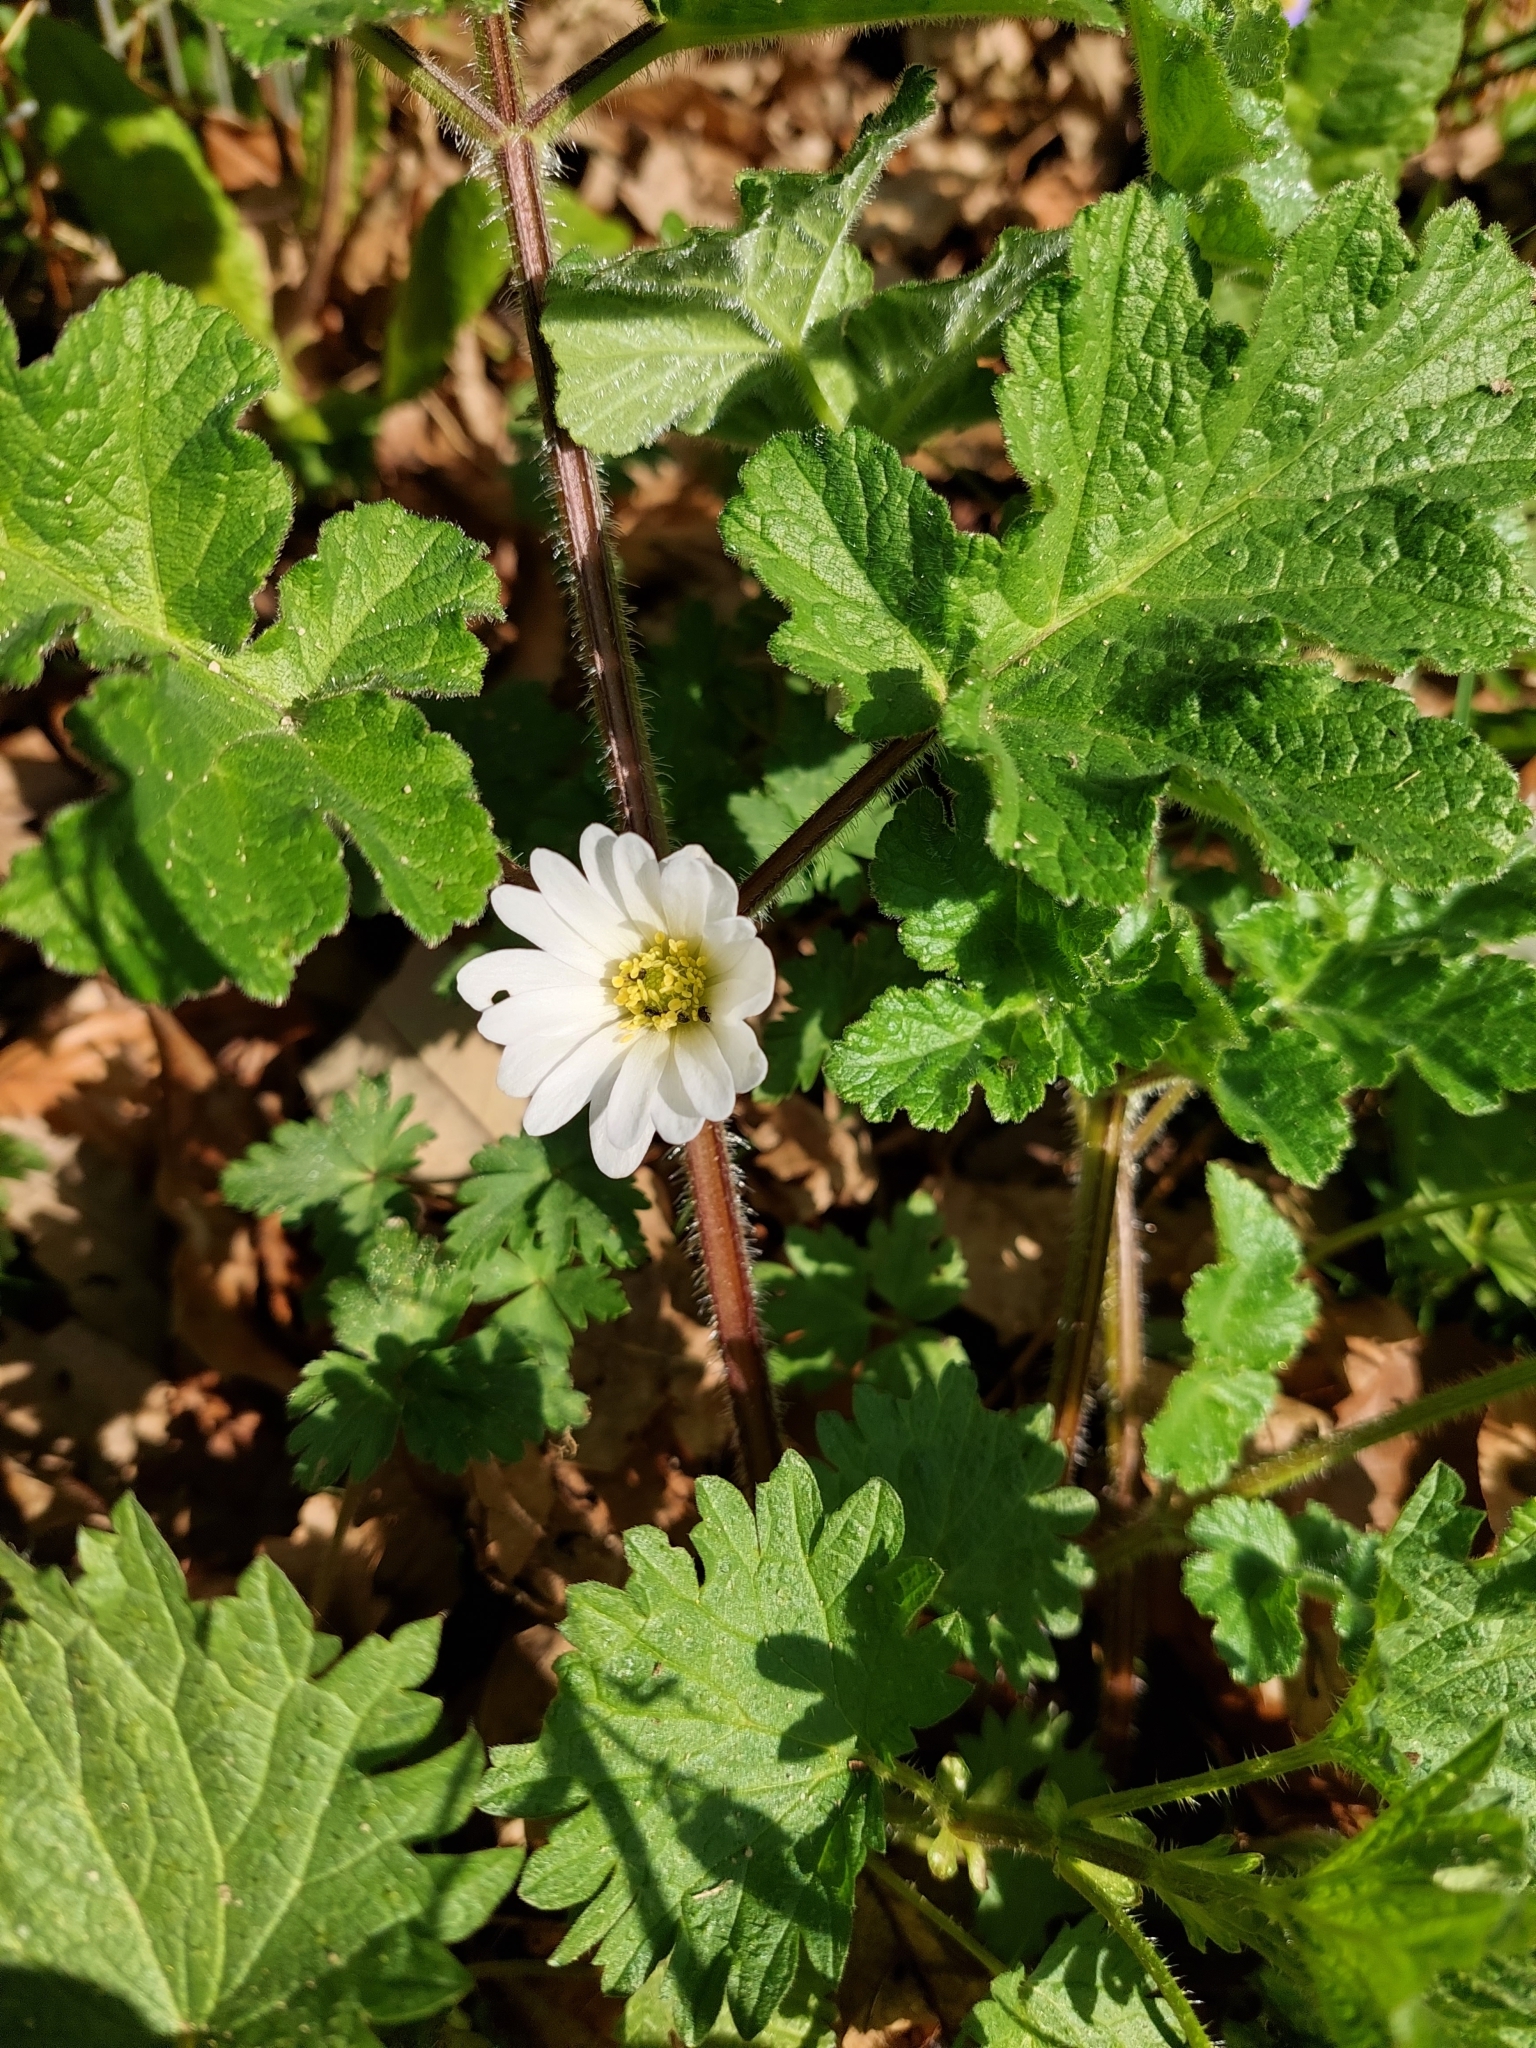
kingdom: Plantae
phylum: Tracheophyta
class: Magnoliopsida
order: Ranunculales
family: Ranunculaceae
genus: Anemone
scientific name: Anemone blanda
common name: Balkan anemone
